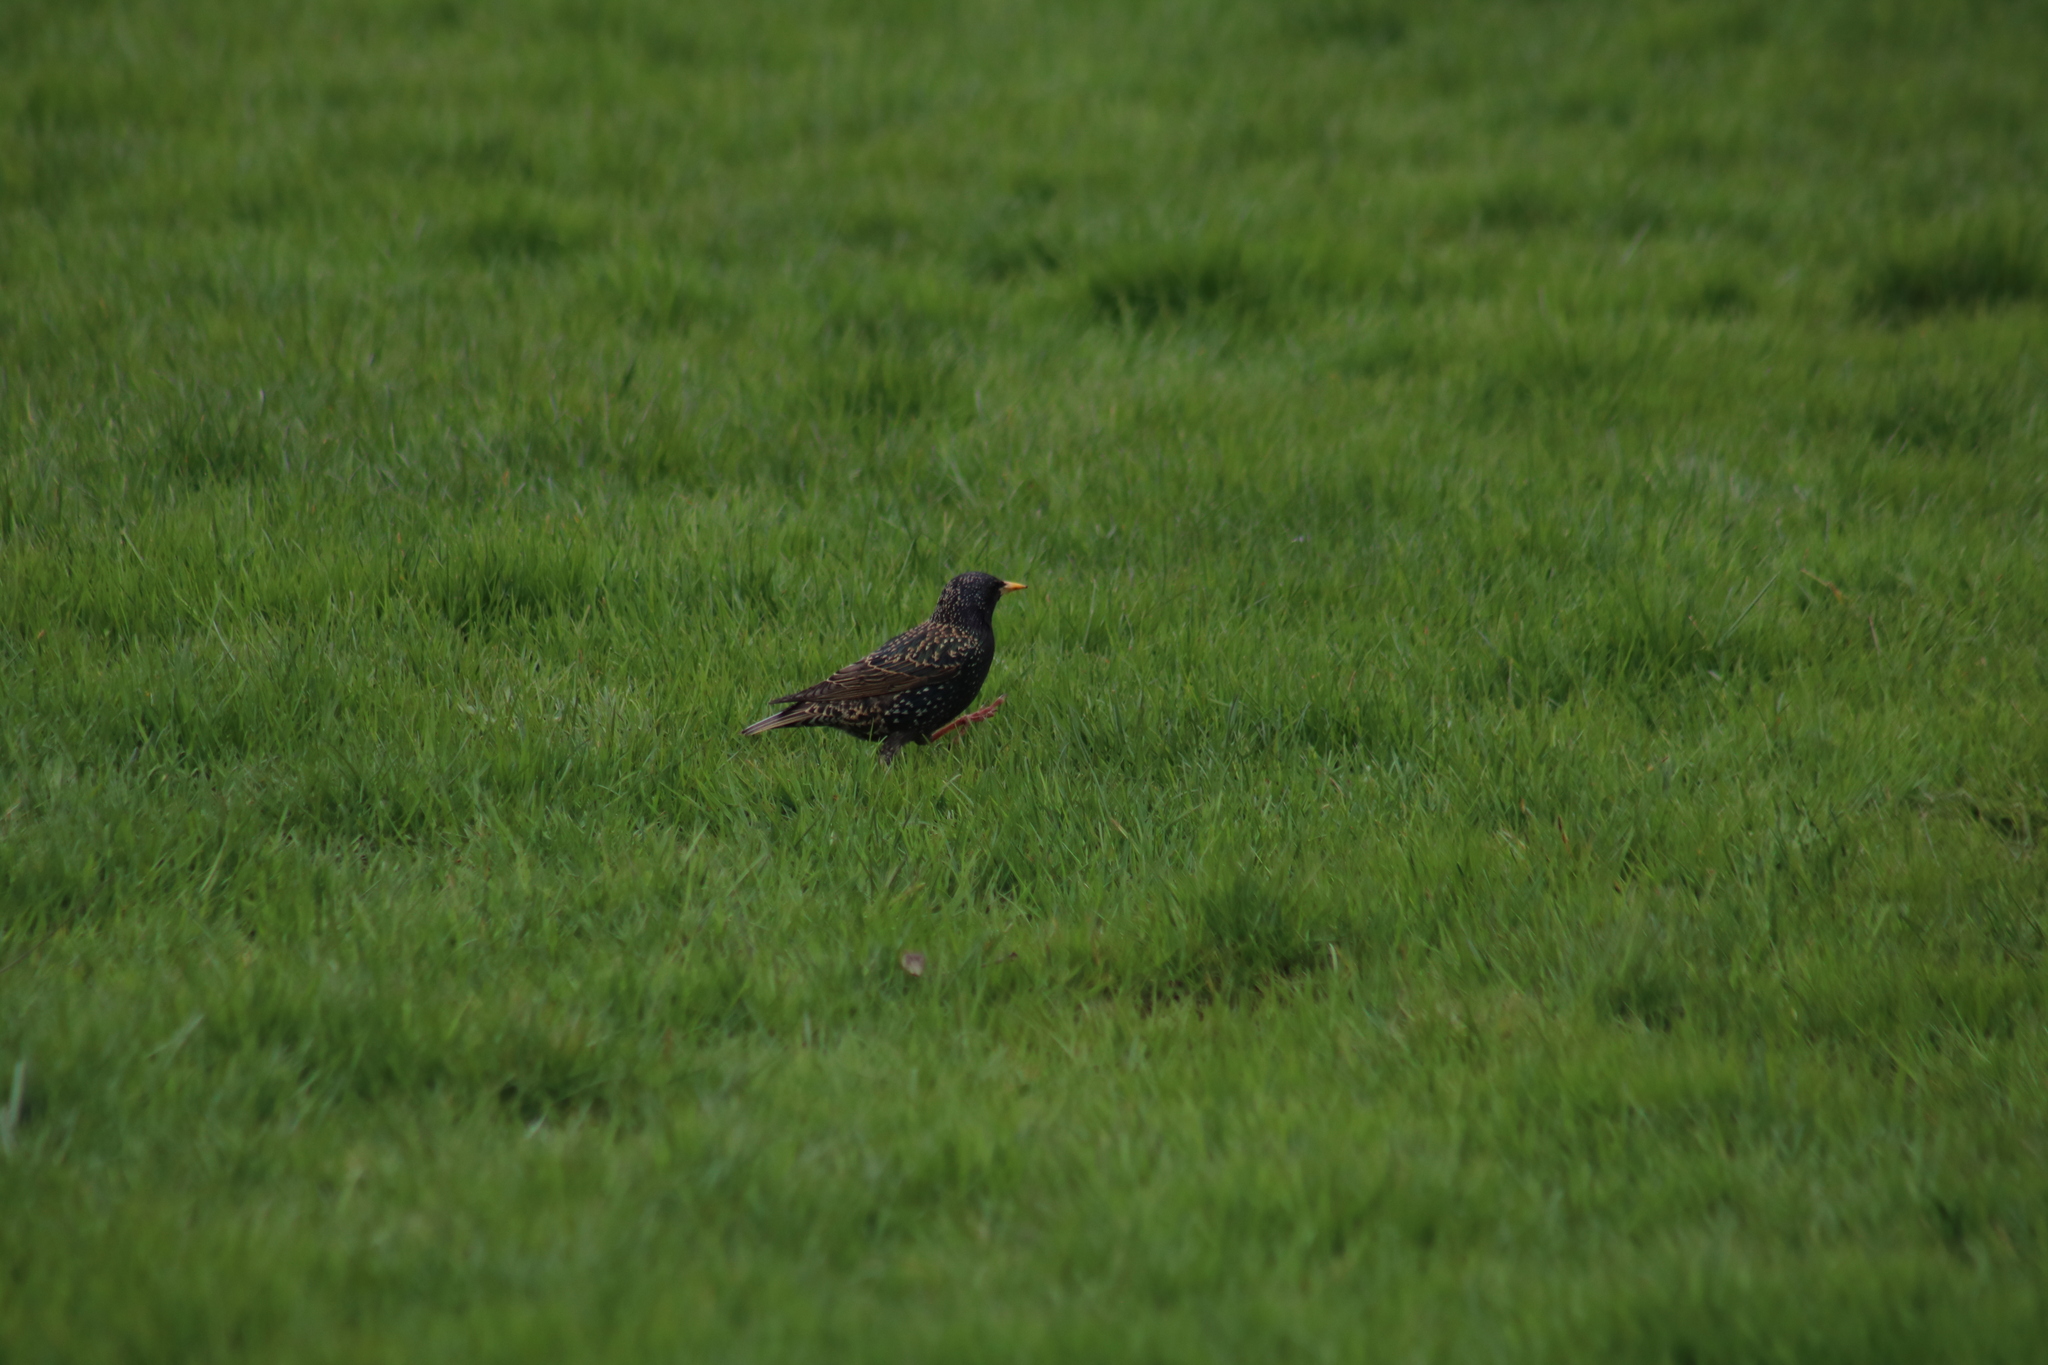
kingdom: Animalia
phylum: Chordata
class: Aves
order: Passeriformes
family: Sturnidae
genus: Sturnus
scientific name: Sturnus vulgaris
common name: Common starling
